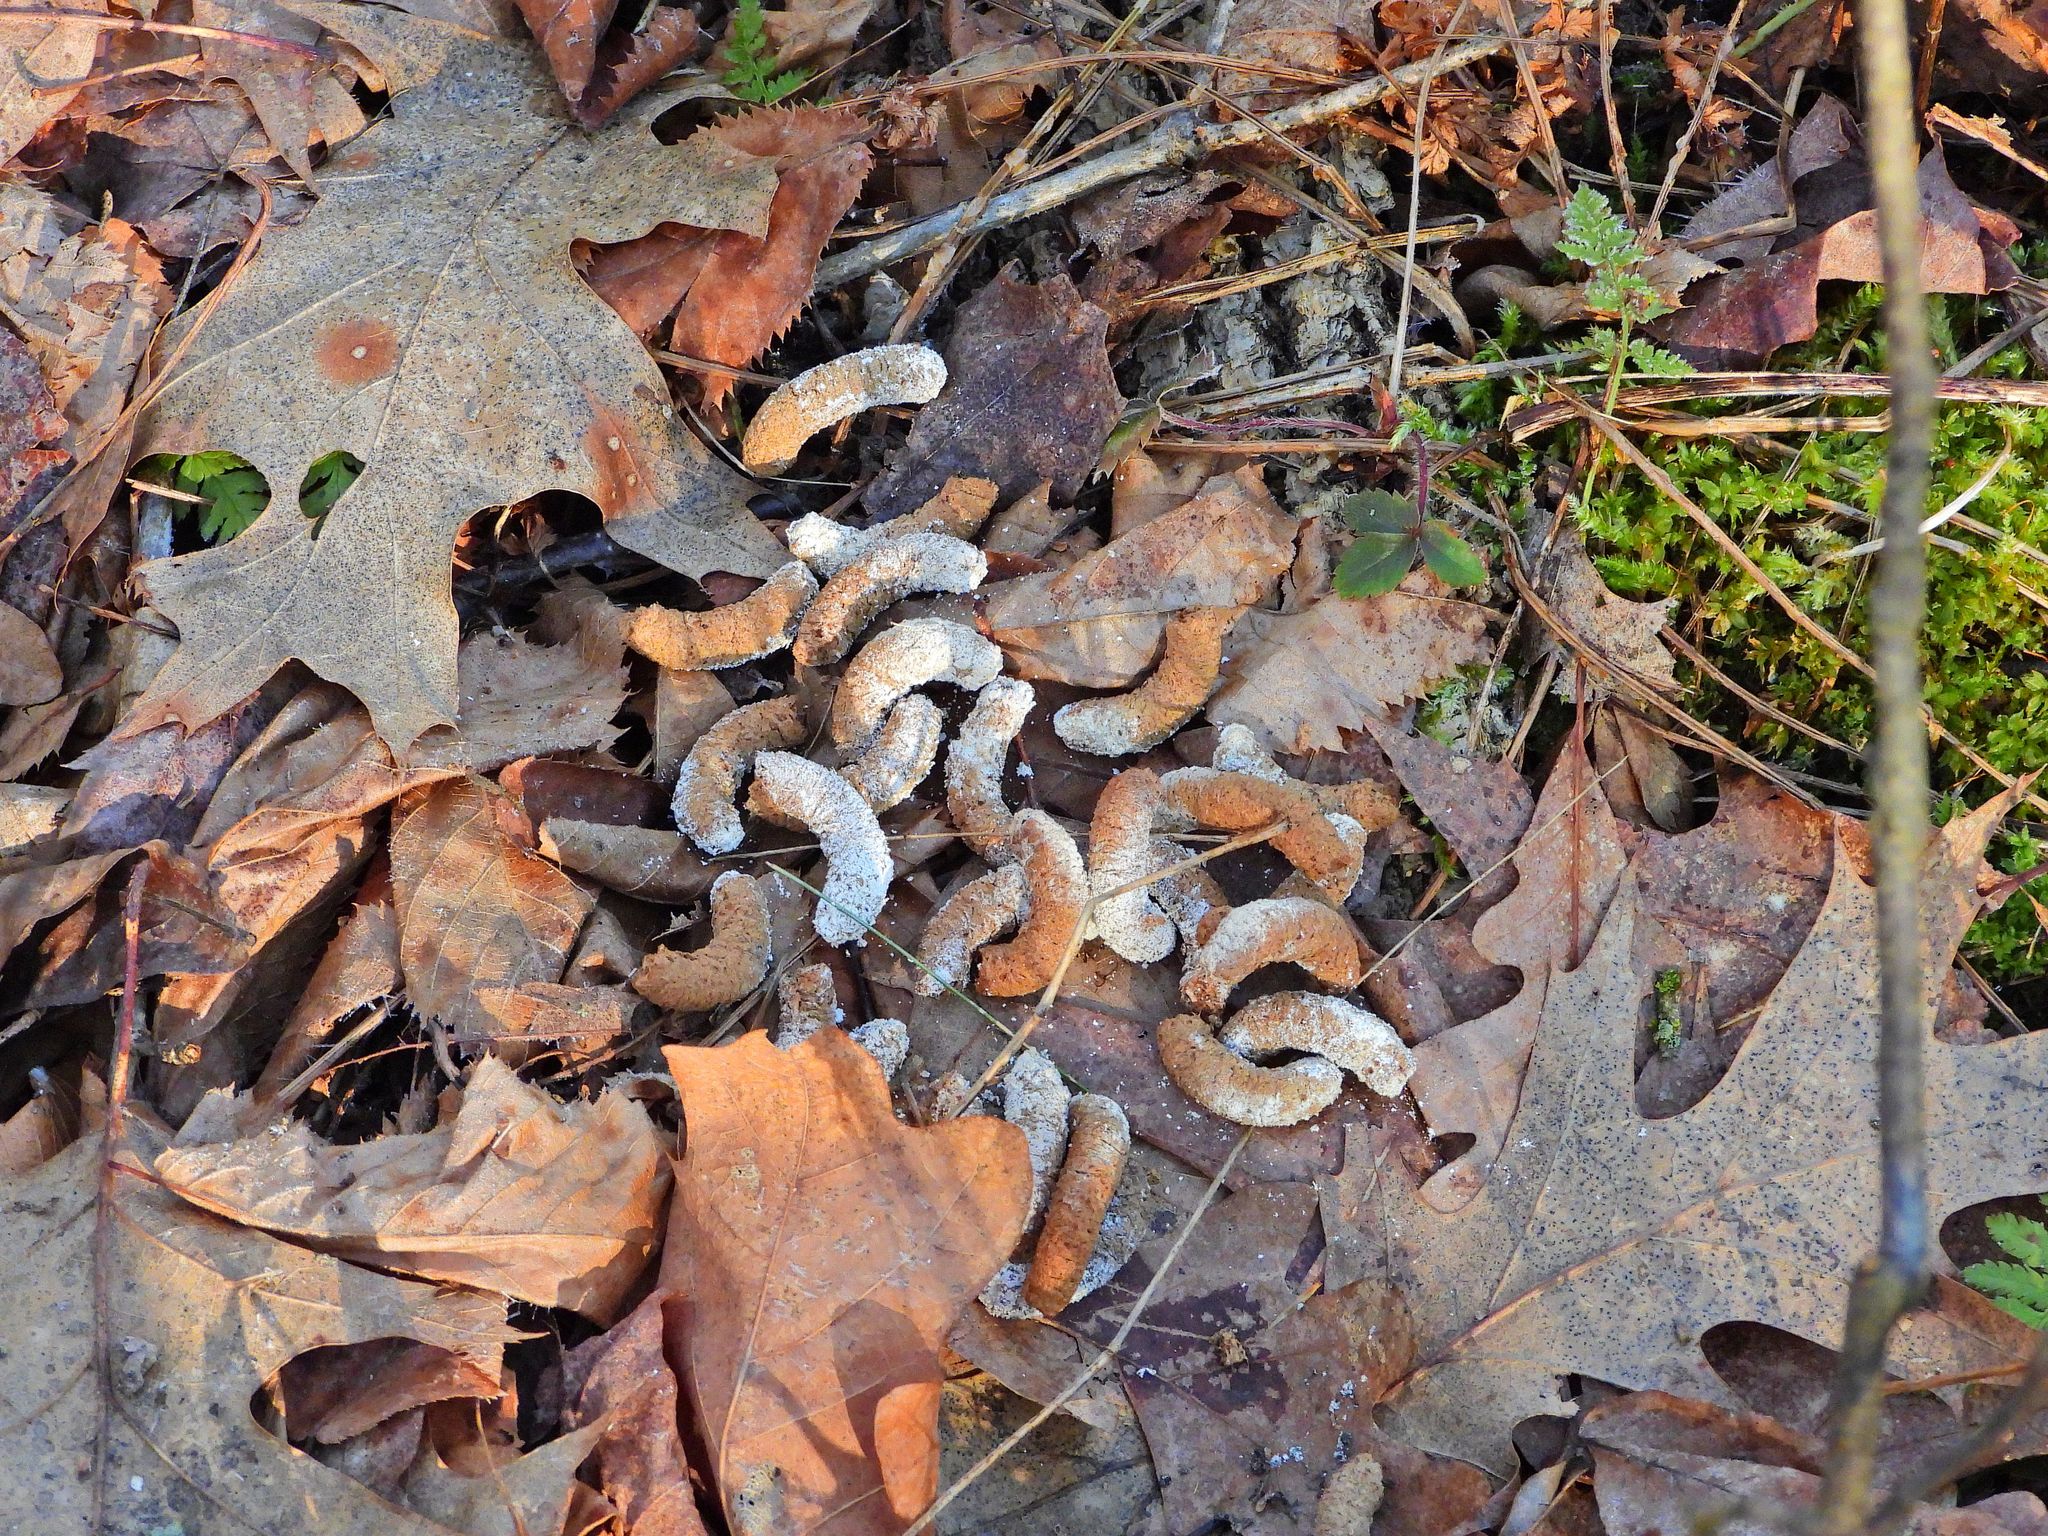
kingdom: Animalia
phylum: Chordata
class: Aves
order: Galliformes
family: Phasianidae
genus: Bonasa
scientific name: Bonasa umbellus
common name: Ruffed grouse
